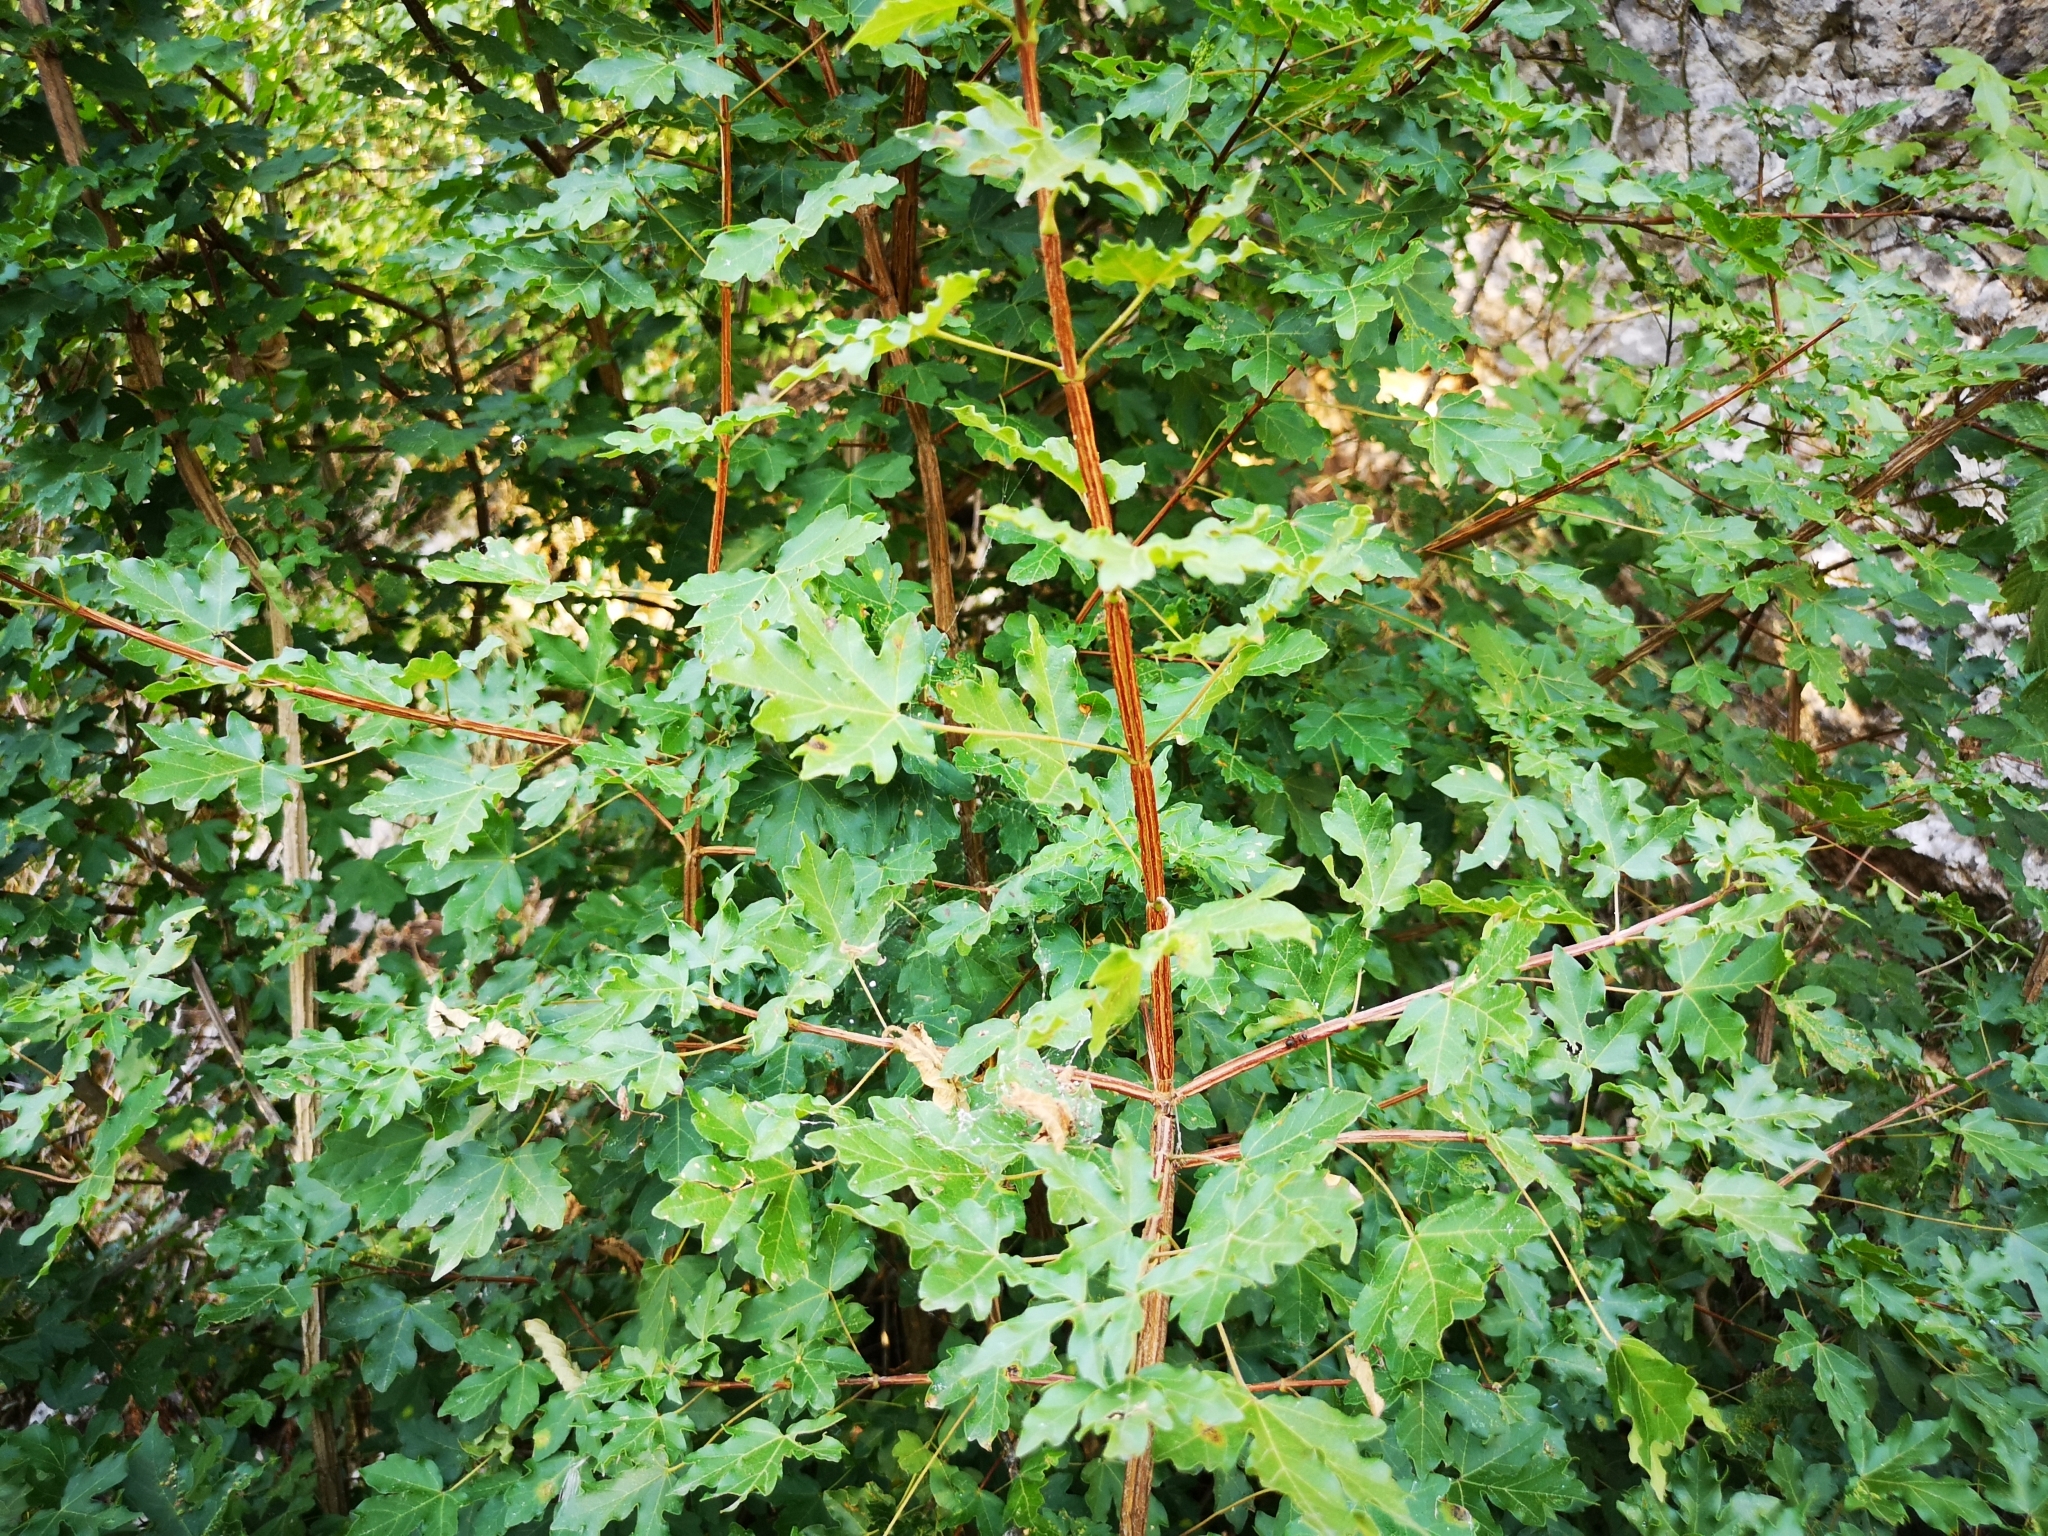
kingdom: Plantae
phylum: Tracheophyta
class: Magnoliopsida
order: Sapindales
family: Sapindaceae
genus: Acer
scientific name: Acer campestre
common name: Field maple
